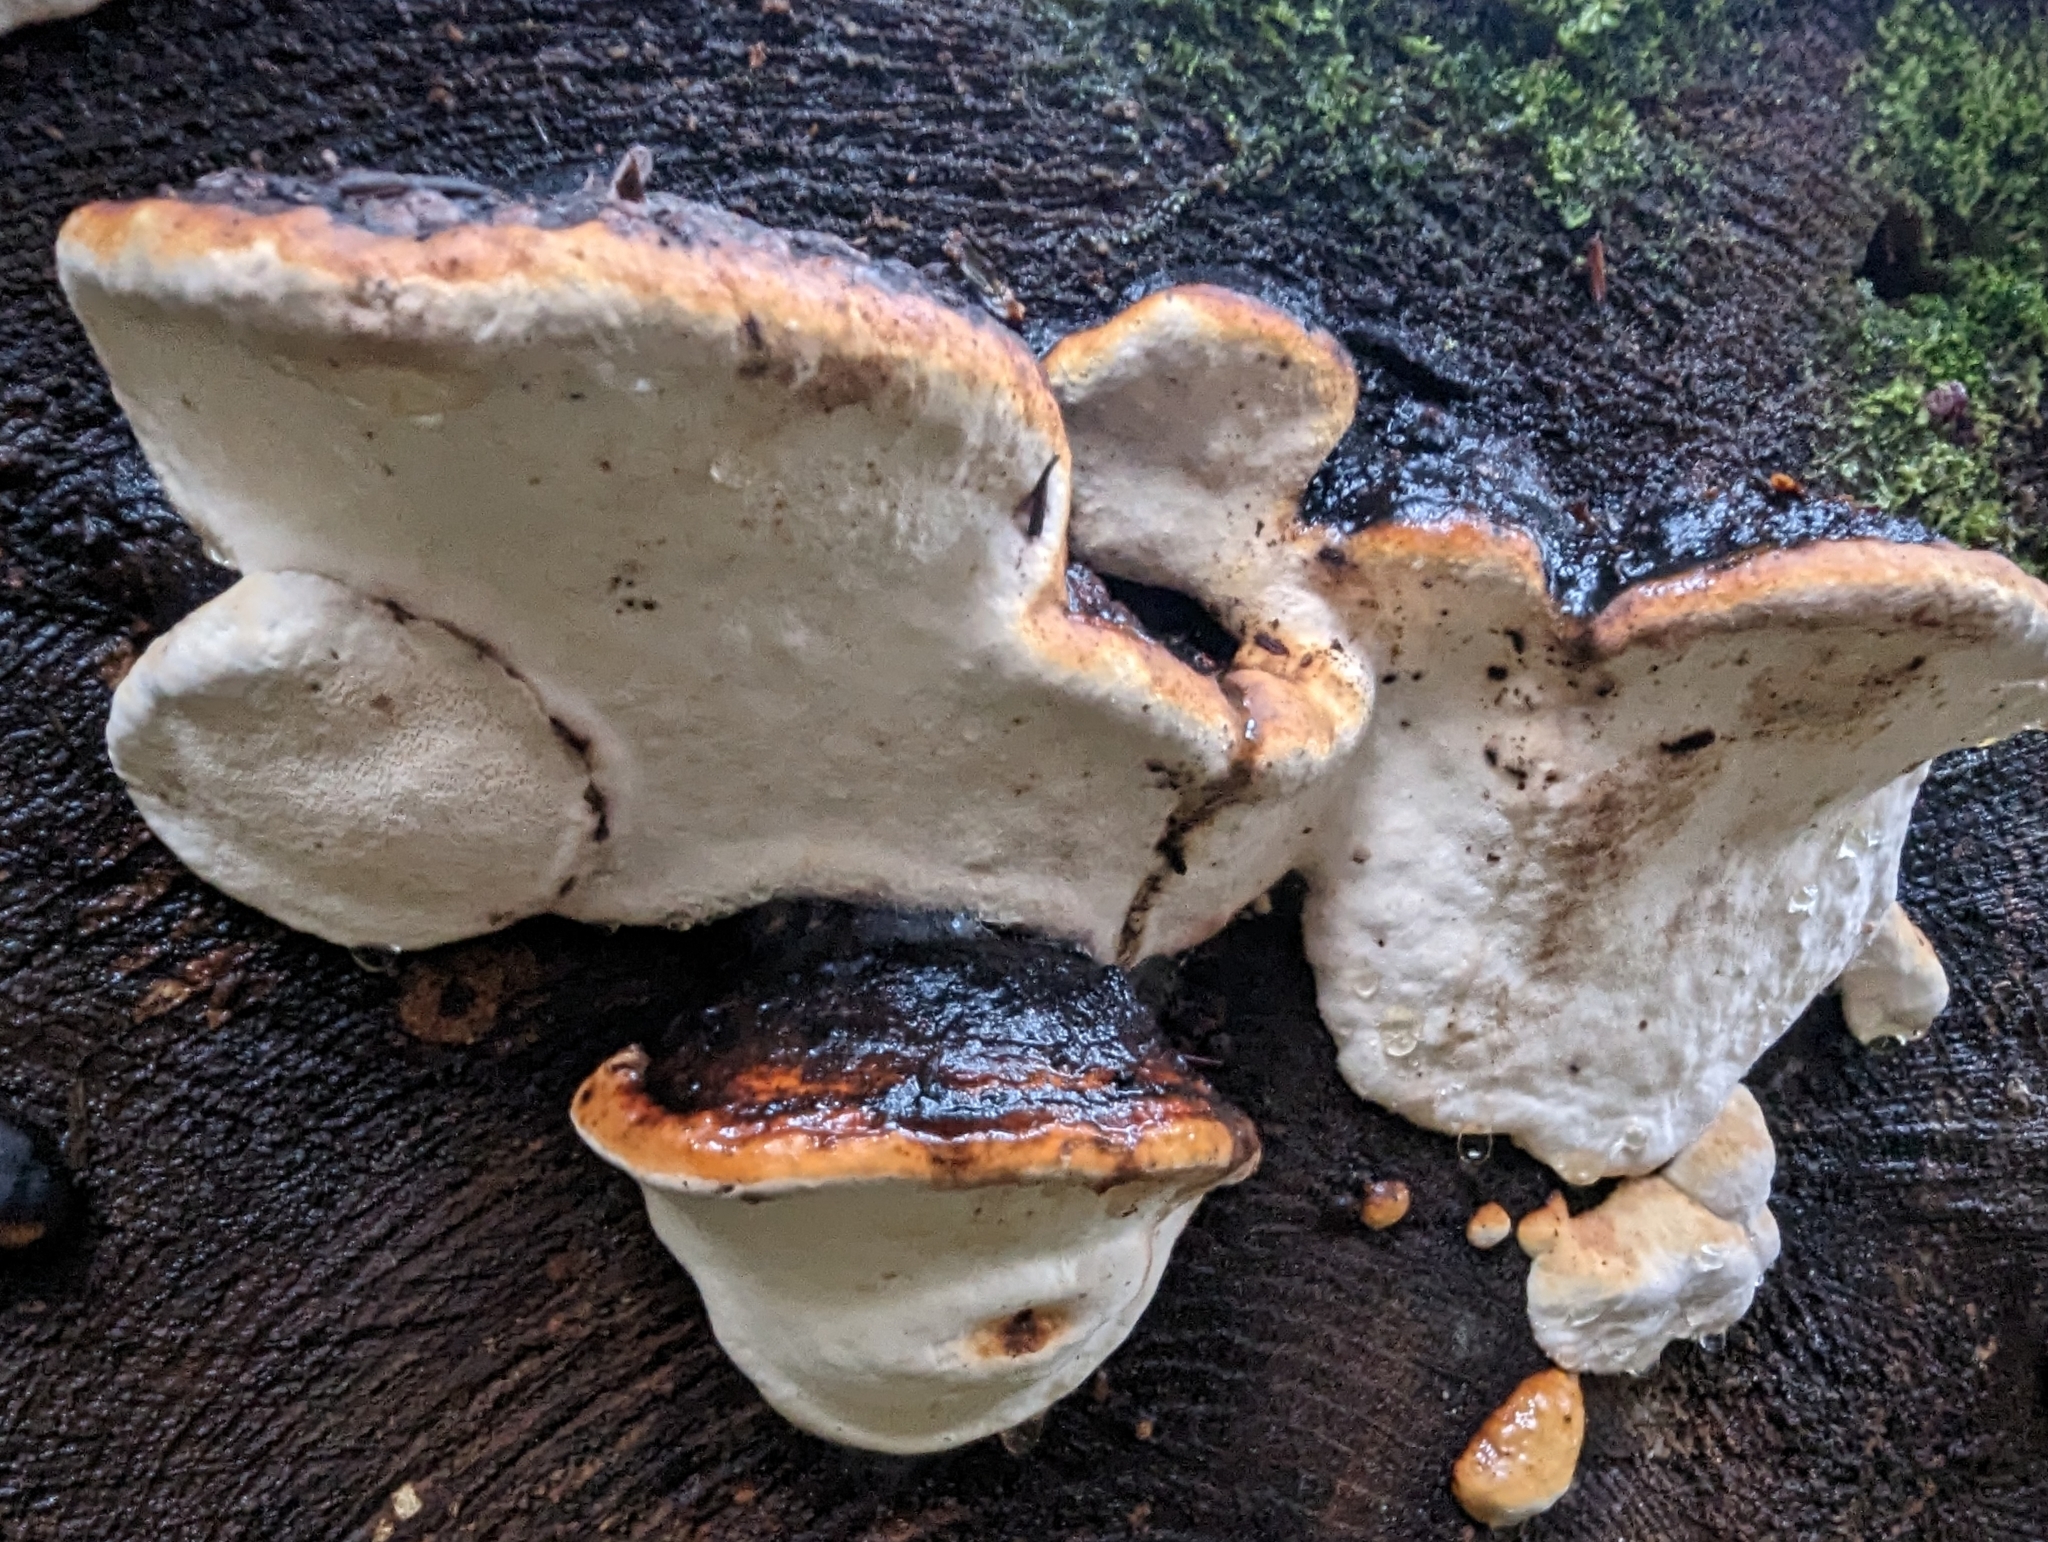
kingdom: Fungi
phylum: Basidiomycota
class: Agaricomycetes
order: Polyporales
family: Fomitopsidaceae
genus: Fomitopsis
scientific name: Fomitopsis mounceae
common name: Northern red belt
